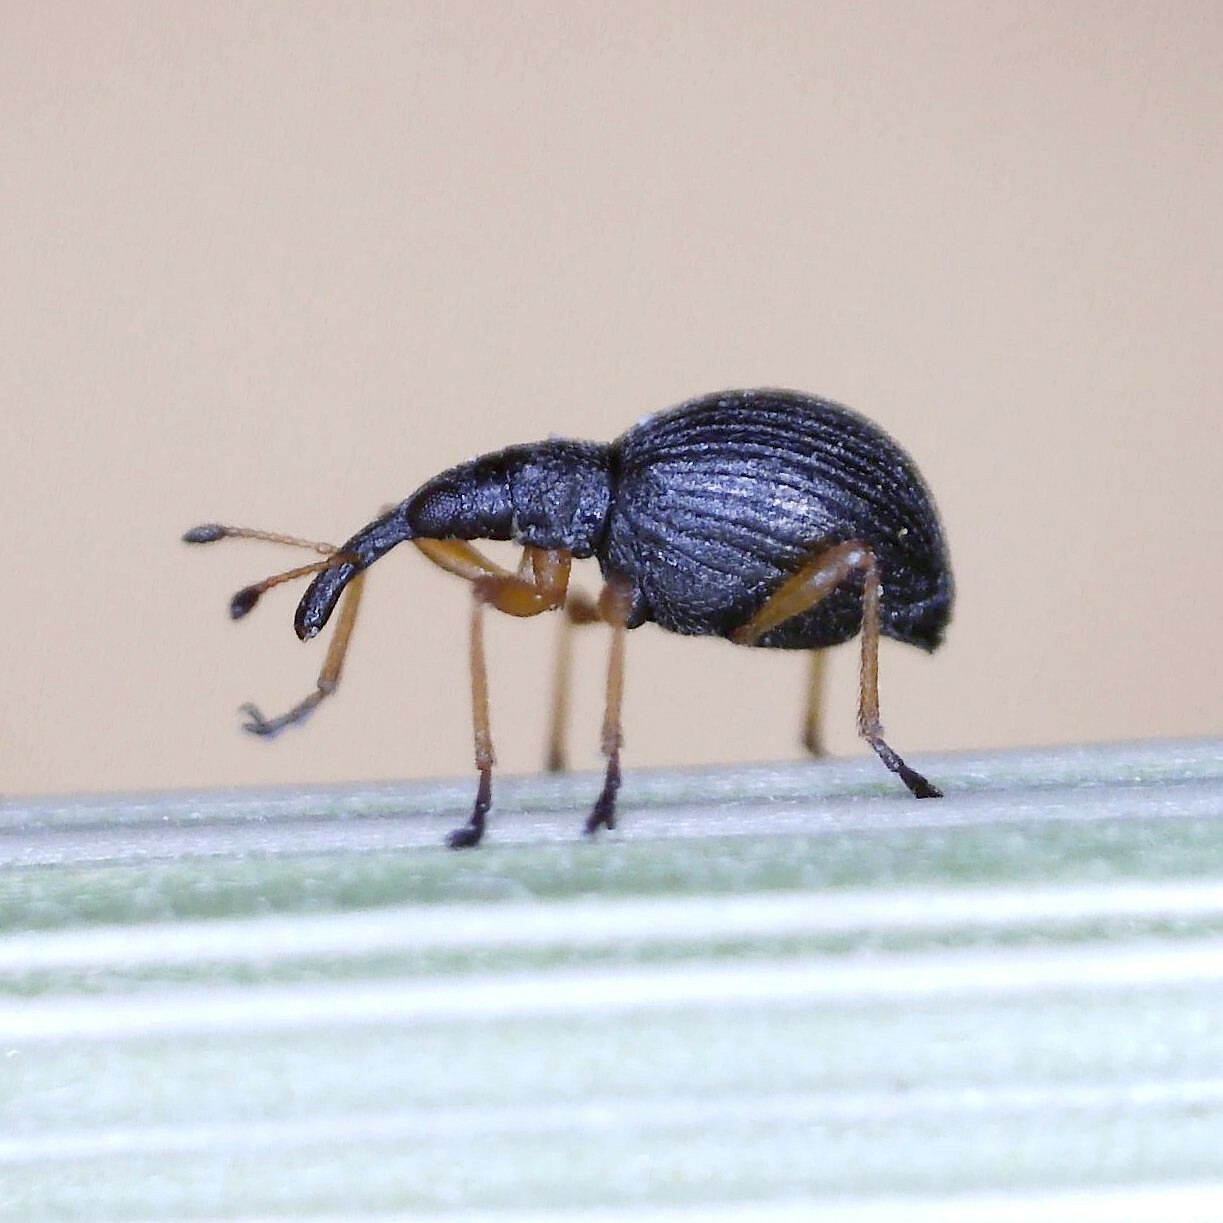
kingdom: Animalia
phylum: Arthropoda
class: Insecta
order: Coleoptera
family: Apionidae
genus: Protapion
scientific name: Protapion nigritarse
